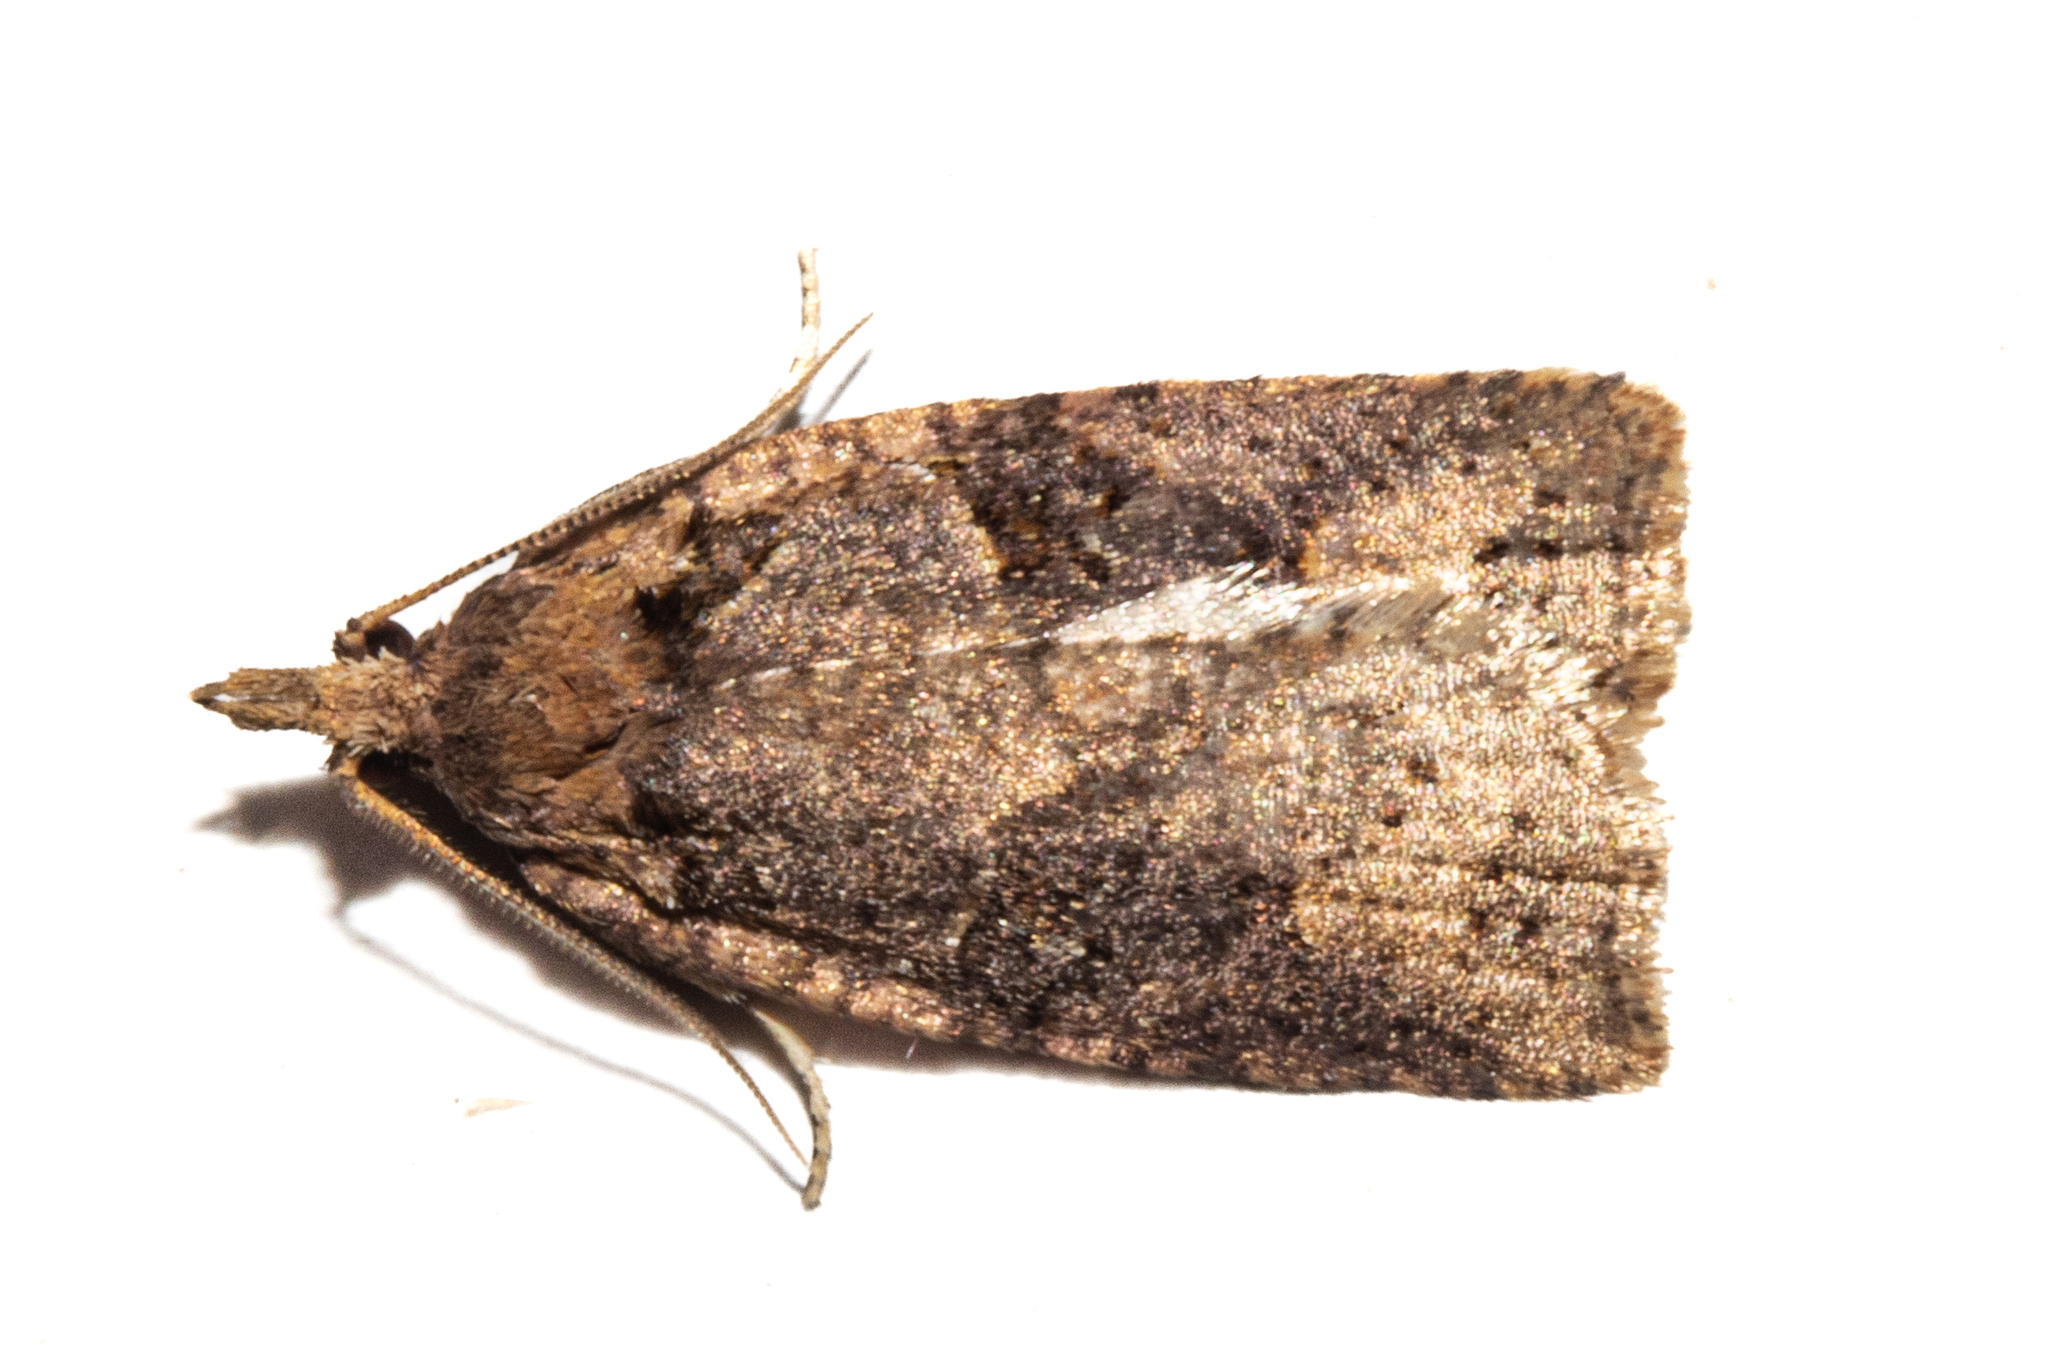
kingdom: Animalia
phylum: Arthropoda
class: Insecta
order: Lepidoptera
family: Tortricidae
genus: Ctenopseustis
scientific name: Ctenopseustis obliquana
